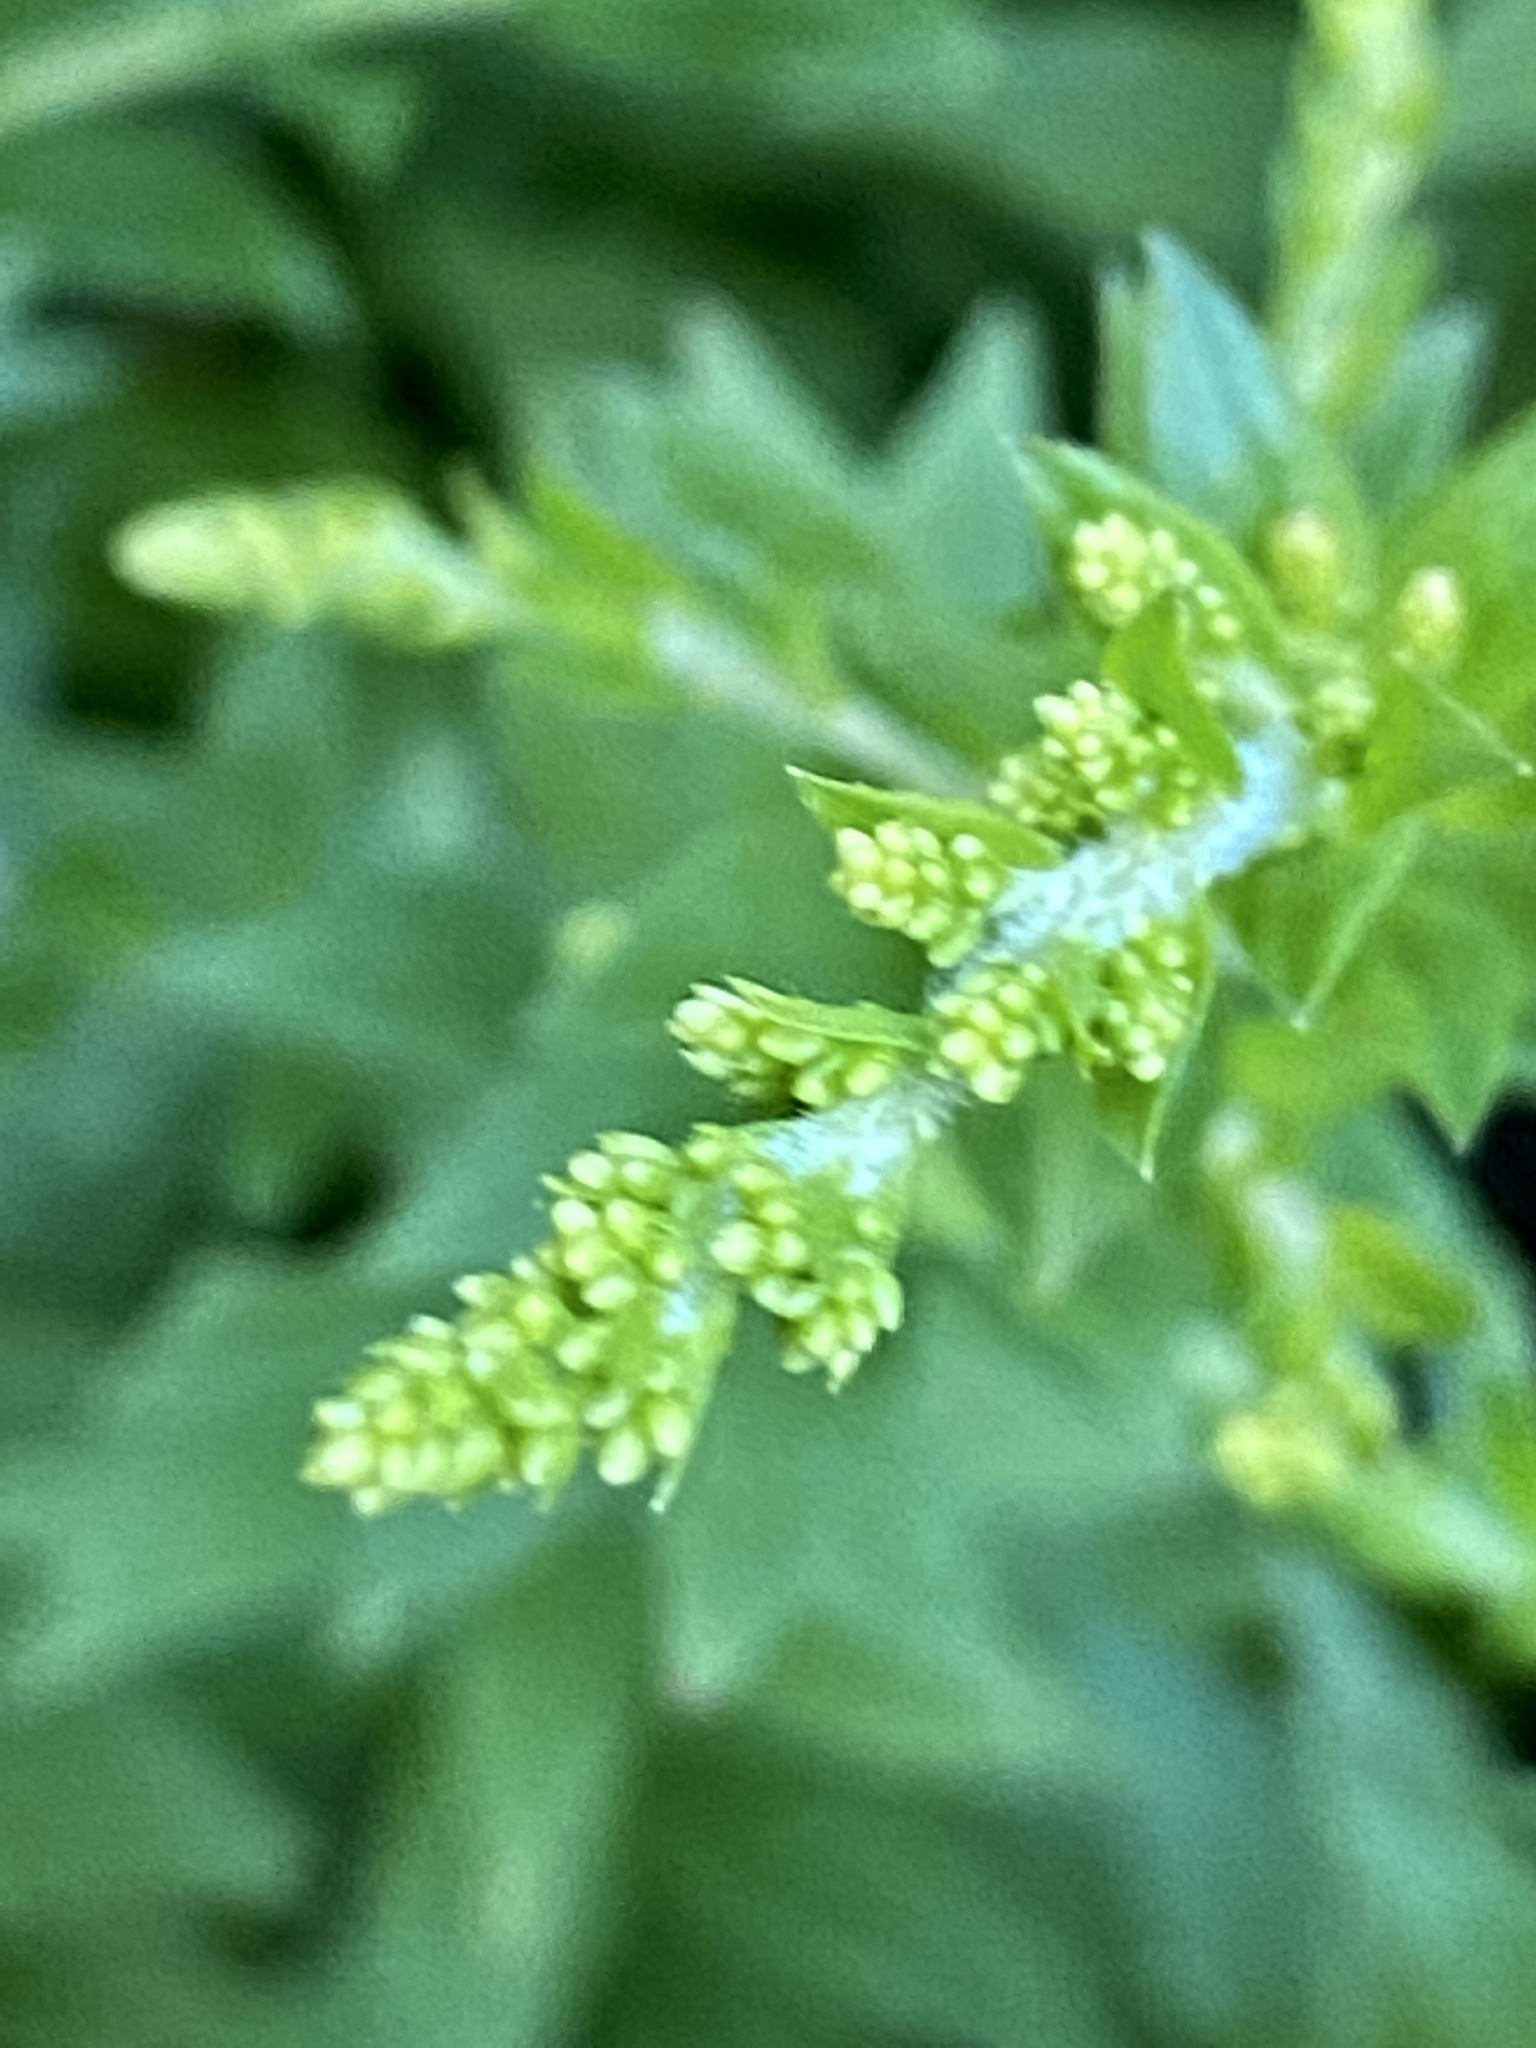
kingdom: Plantae
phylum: Tracheophyta
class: Magnoliopsida
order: Asterales
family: Asteraceae
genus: Solidago
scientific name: Solidago rugosa
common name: Rough-stemmed goldenrod
